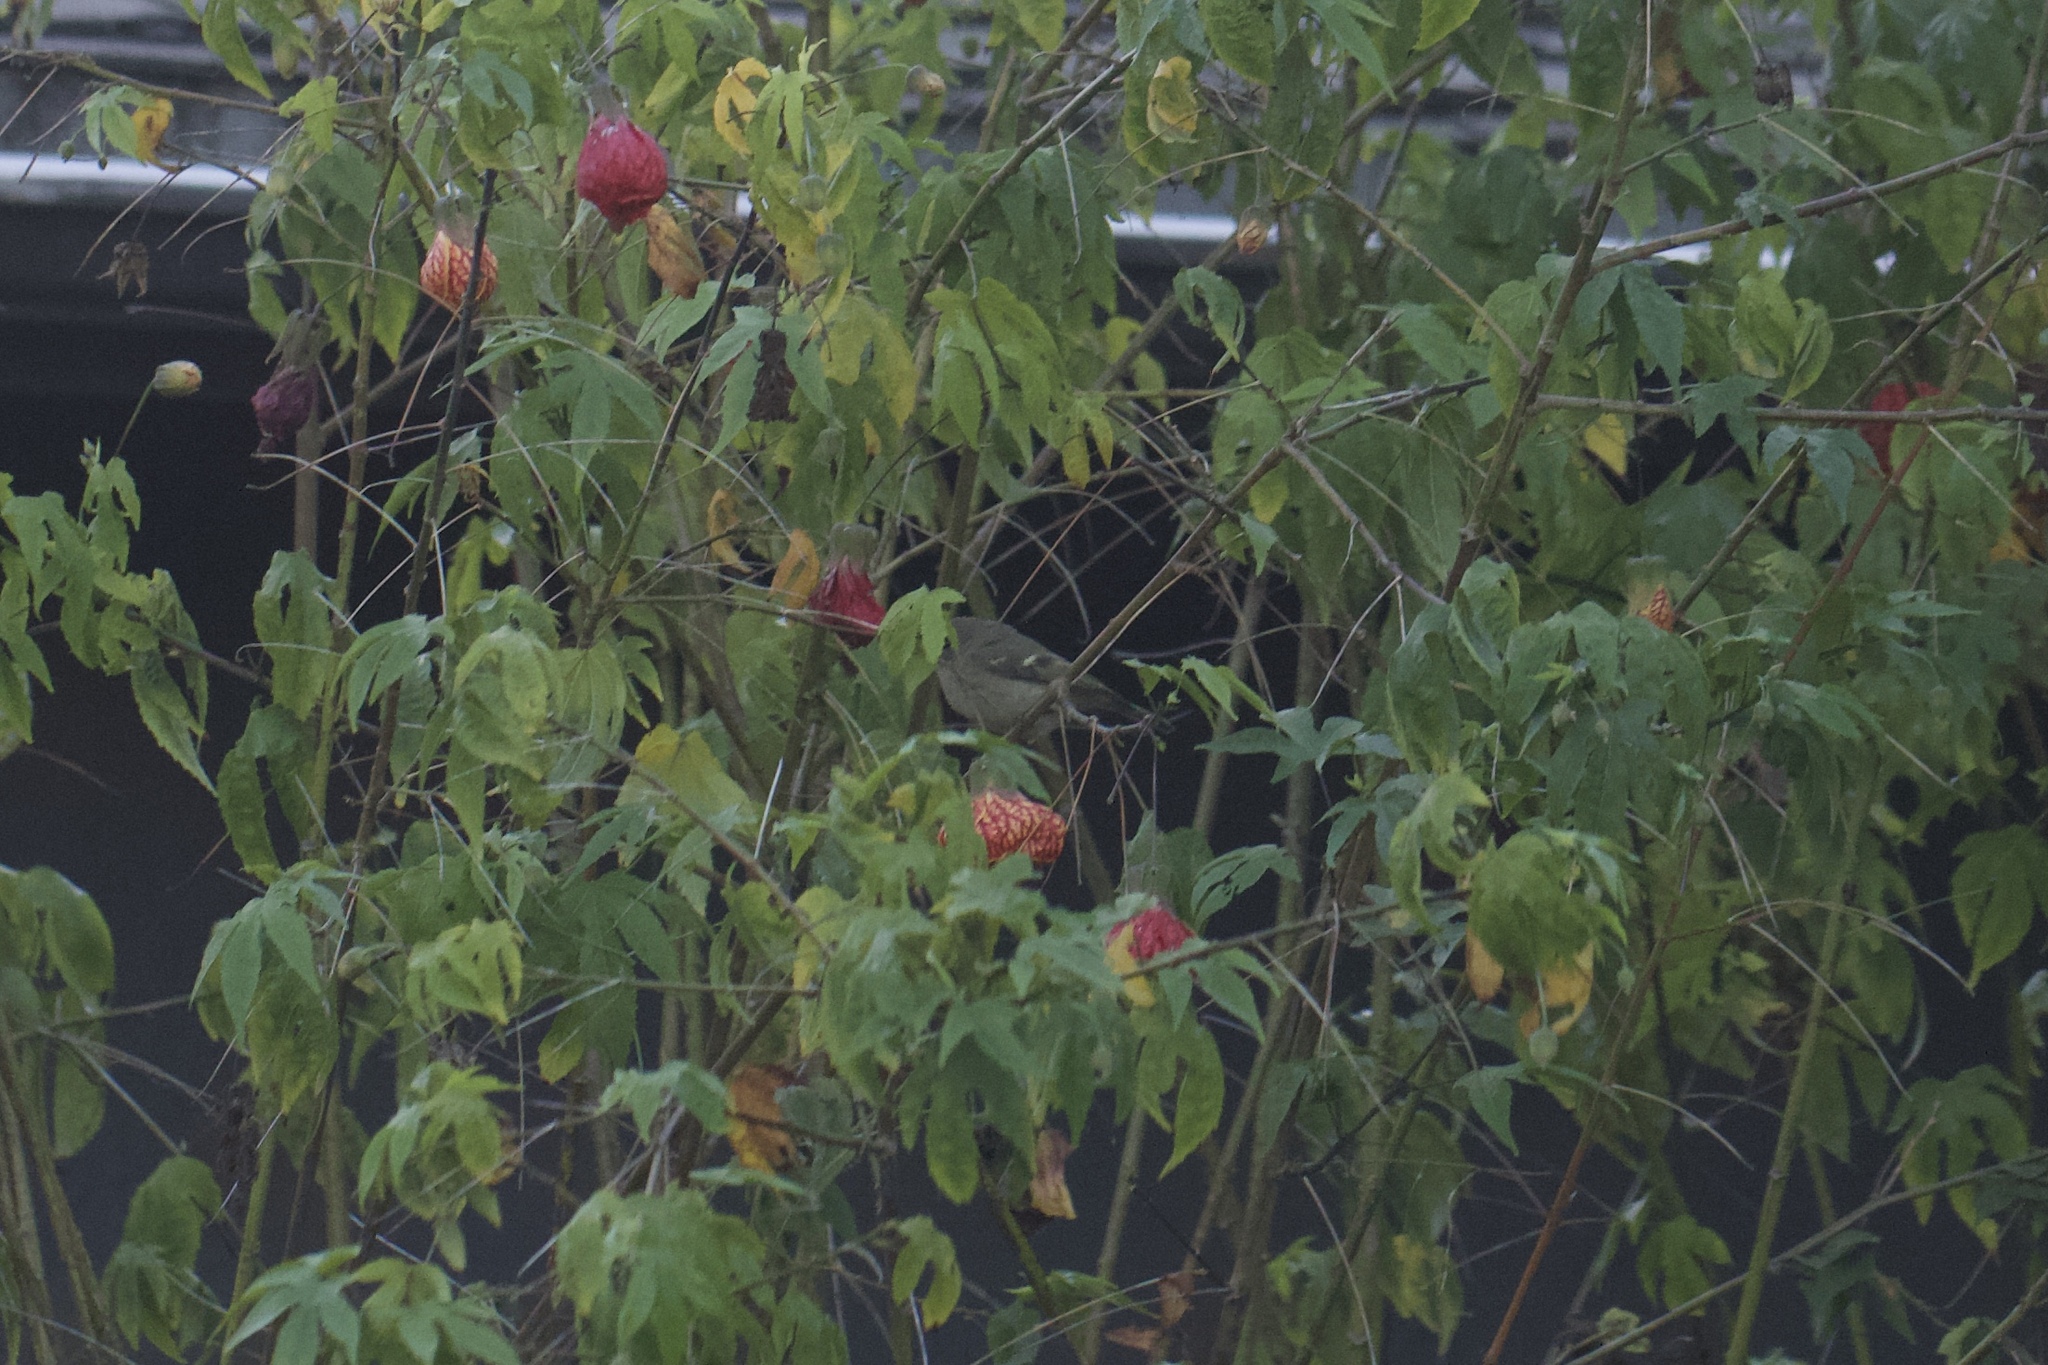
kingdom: Animalia
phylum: Chordata
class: Aves
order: Passeriformes
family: Regulidae
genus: Regulus
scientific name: Regulus calendula
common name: Ruby-crowned kinglet
